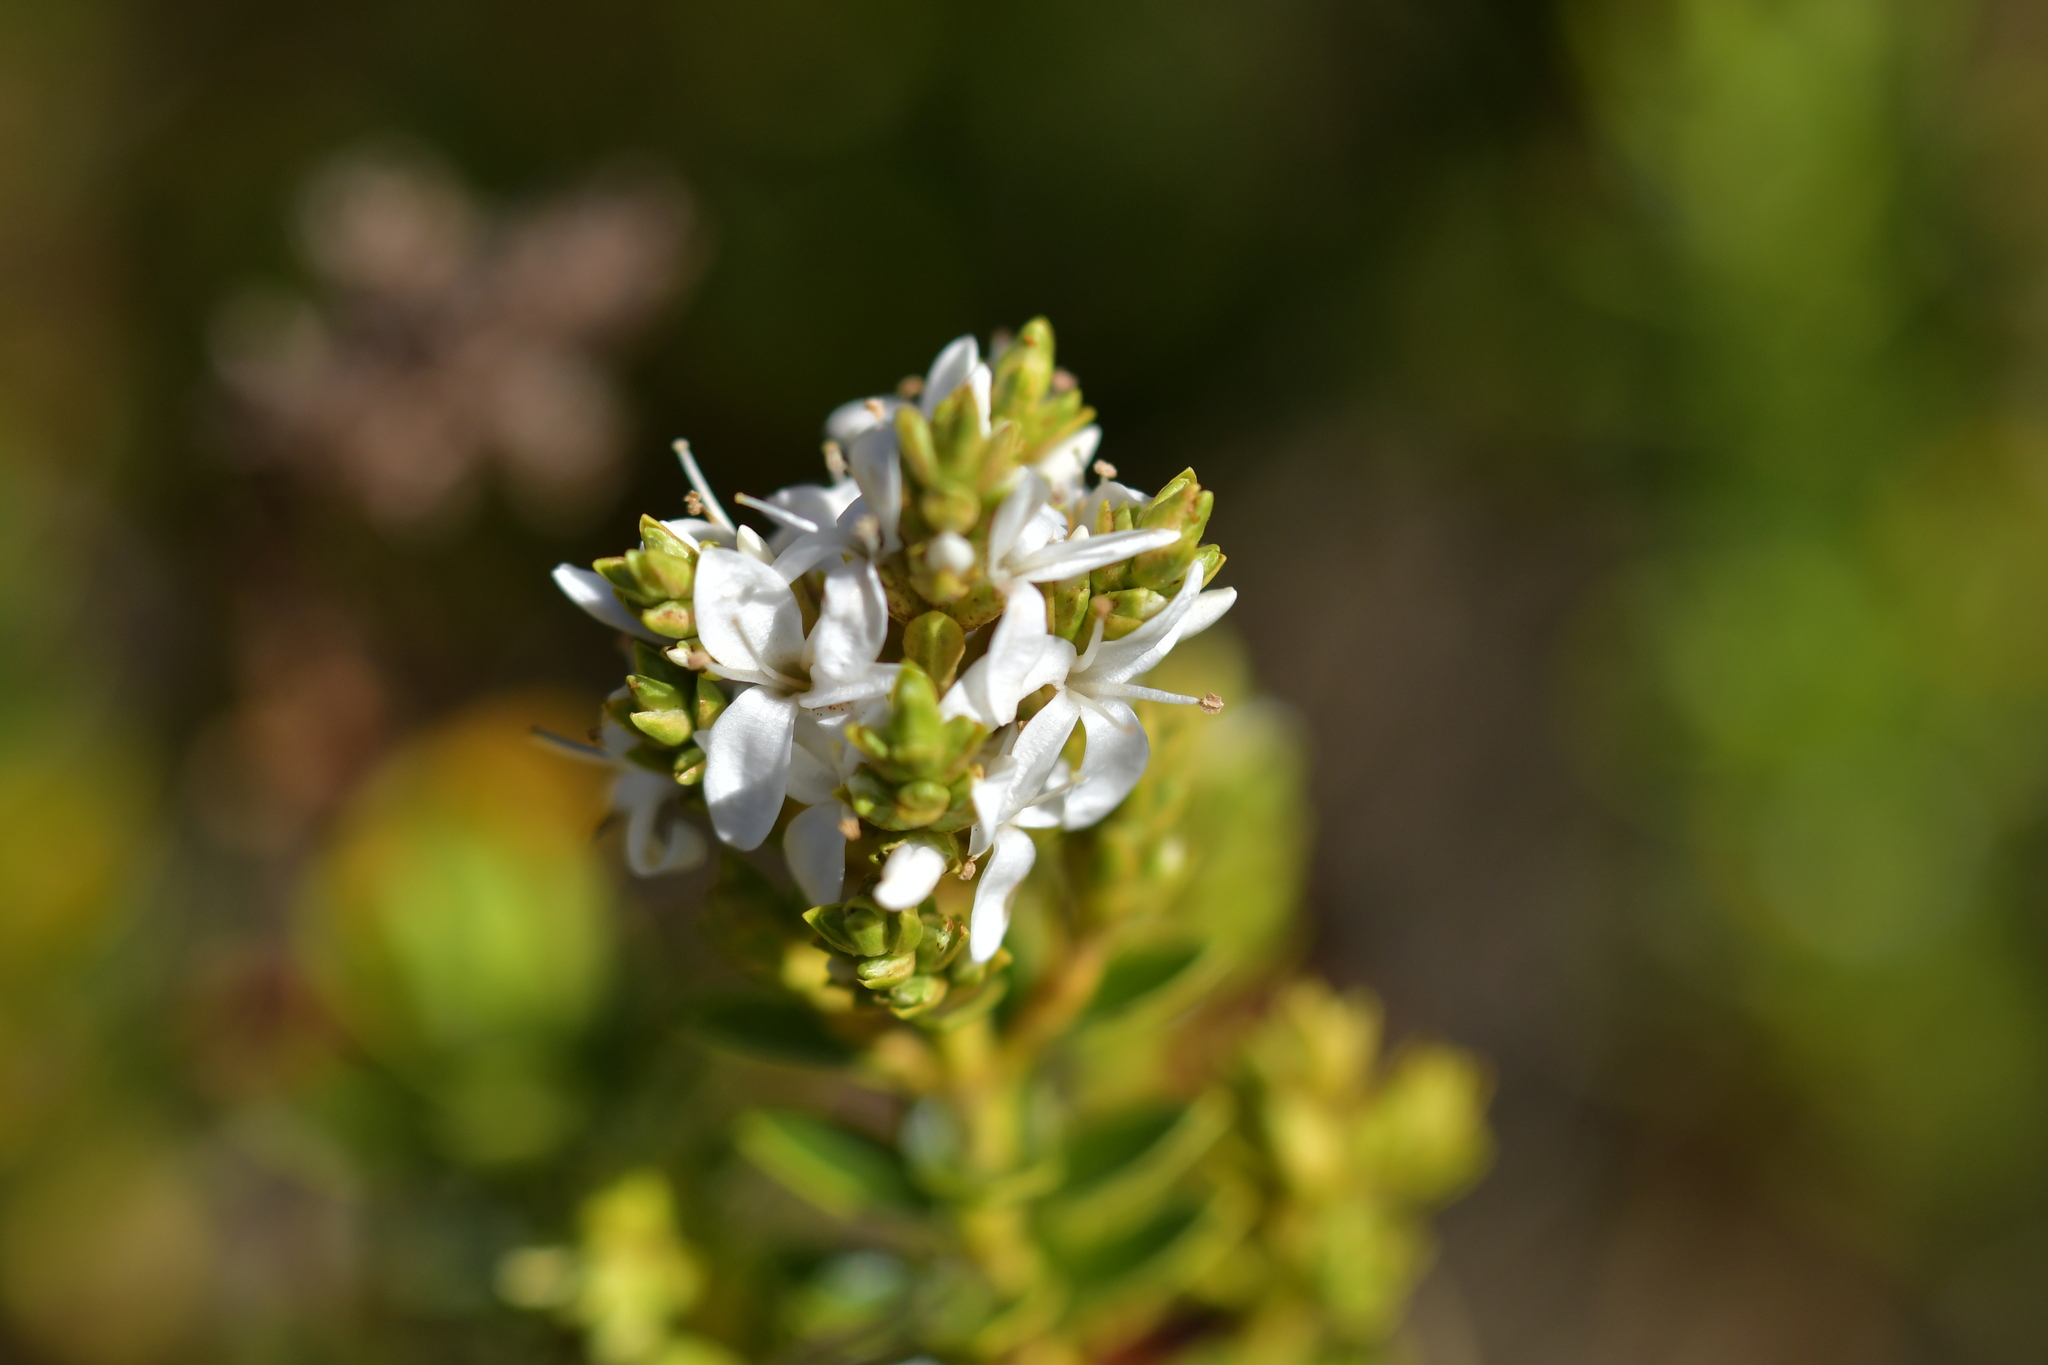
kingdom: Plantae
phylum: Tracheophyta
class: Magnoliopsida
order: Lamiales
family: Plantaginaceae
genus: Veronica
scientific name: Veronica odora
